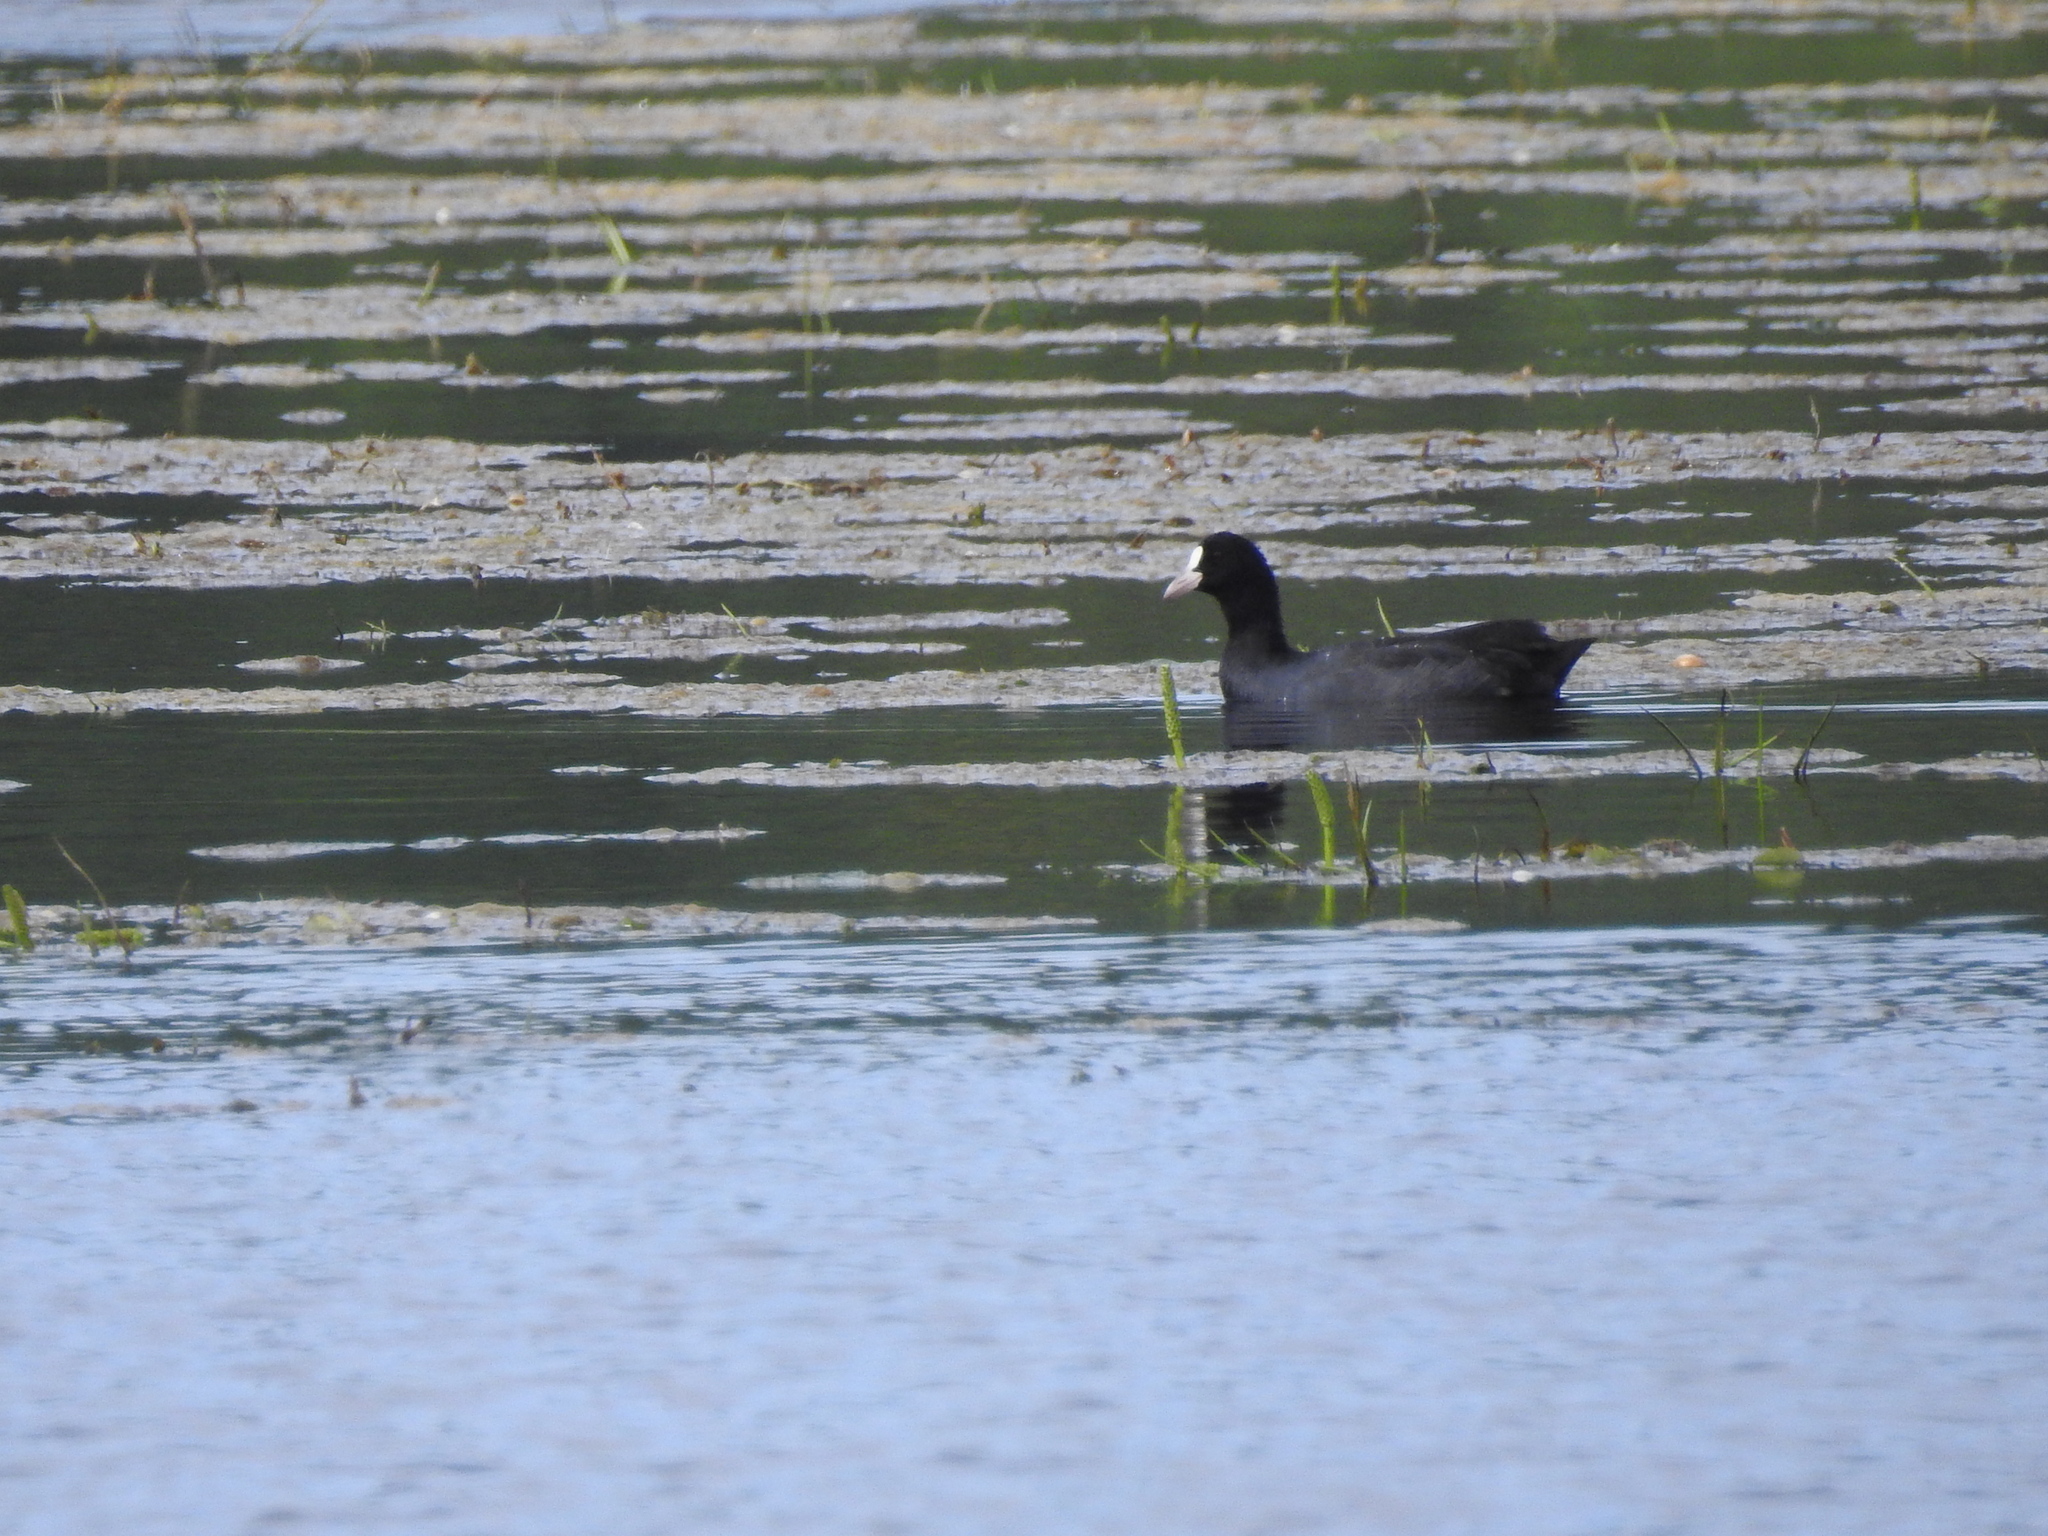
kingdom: Animalia
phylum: Chordata
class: Aves
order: Gruiformes
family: Rallidae
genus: Fulica
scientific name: Fulica atra
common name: Eurasian coot
